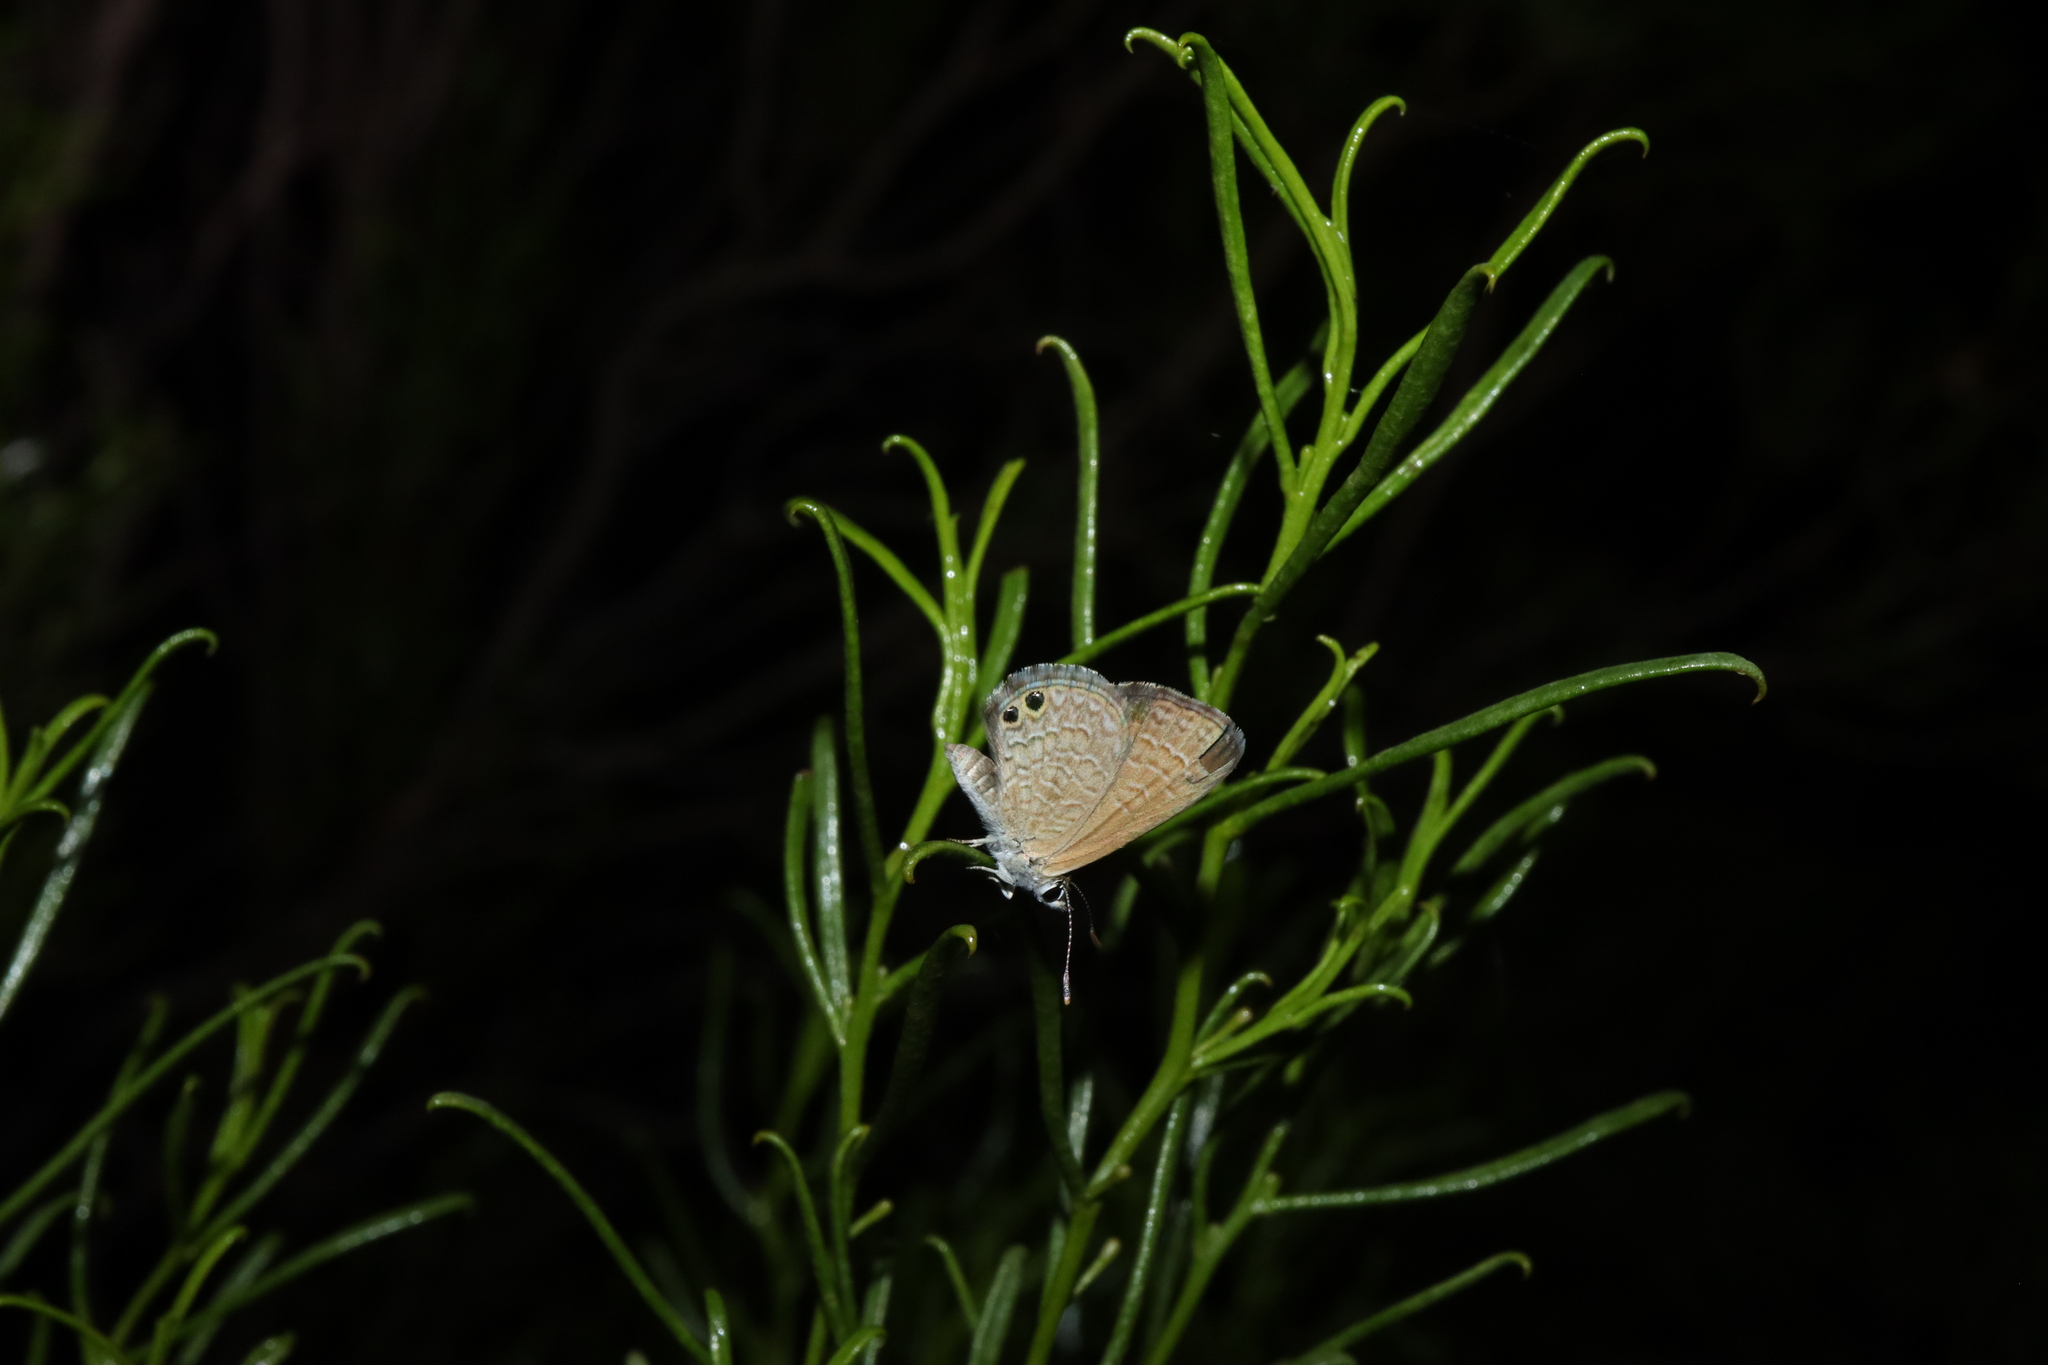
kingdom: Animalia
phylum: Arthropoda
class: Insecta
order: Lepidoptera
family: Lycaenidae
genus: Nacaduba
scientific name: Nacaduba biocellata
